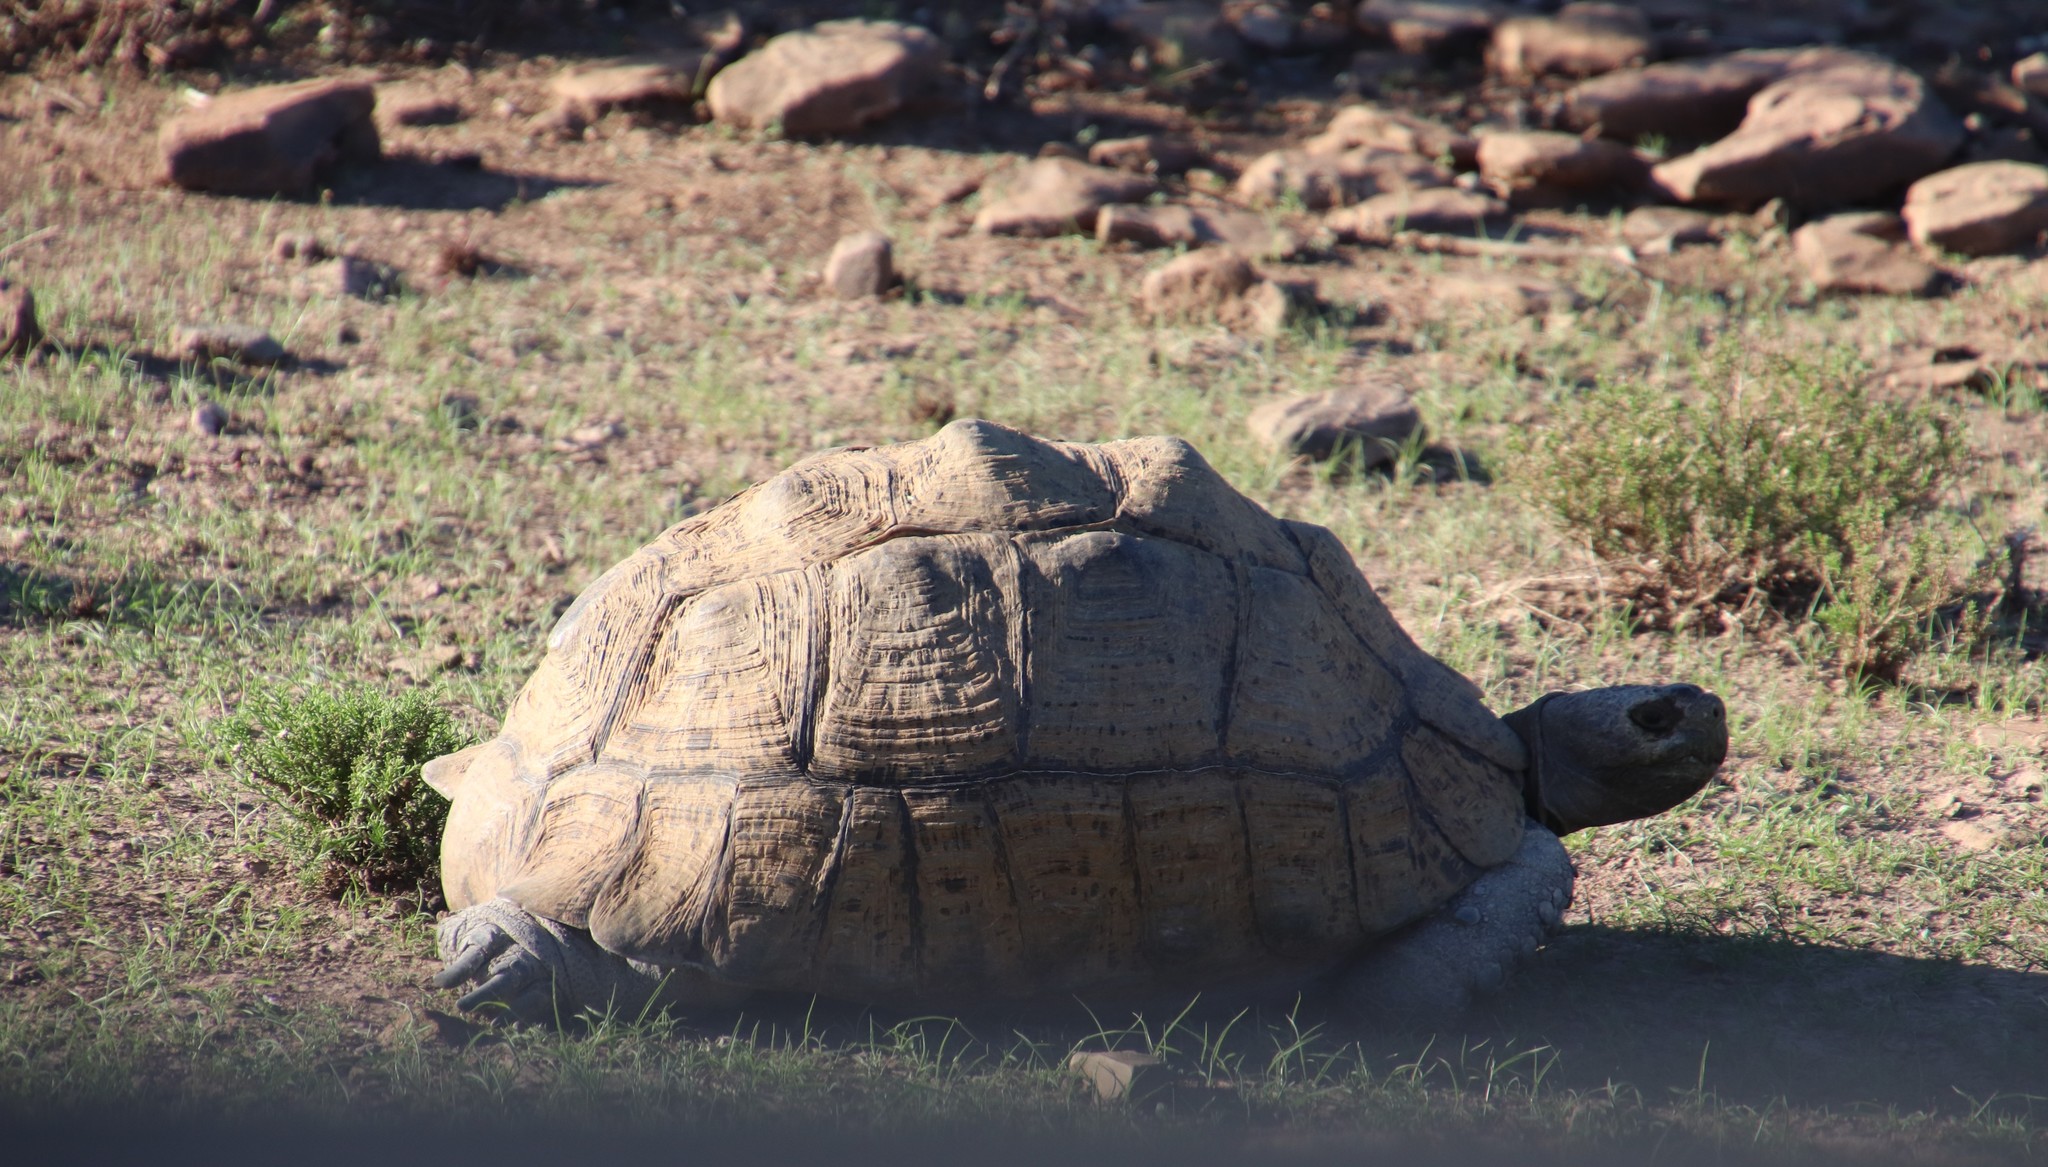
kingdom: Animalia
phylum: Chordata
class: Testudines
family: Testudinidae
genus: Stigmochelys
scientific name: Stigmochelys pardalis
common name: Leopard tortoise
